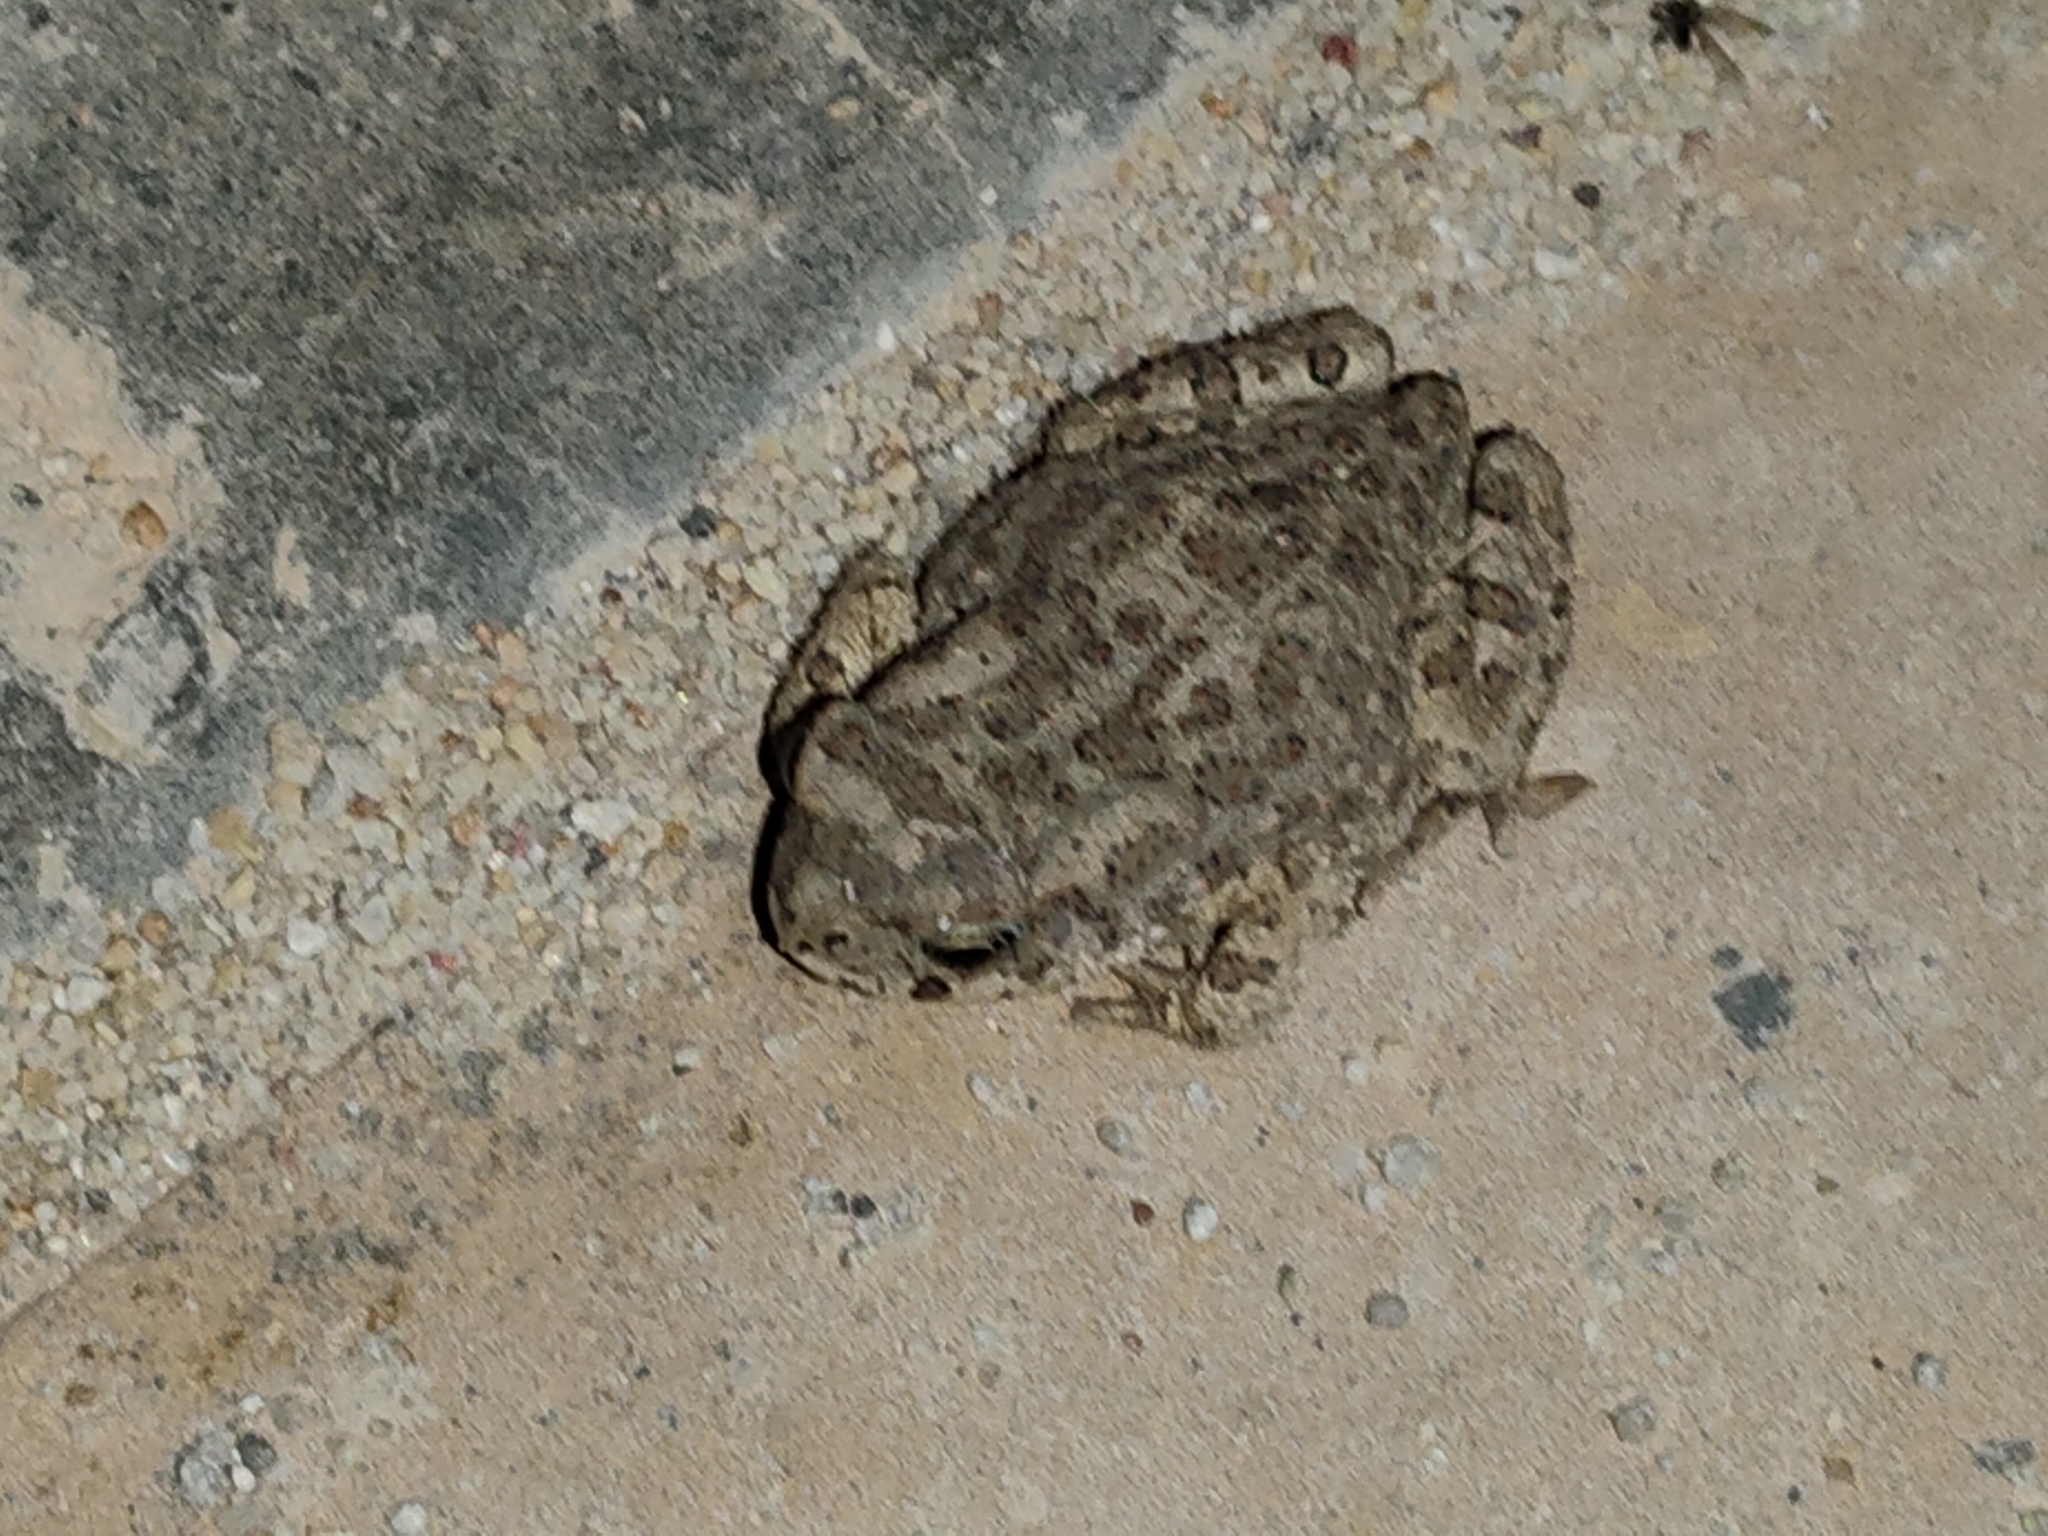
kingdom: Animalia
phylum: Chordata
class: Amphibia
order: Anura
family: Bufonidae
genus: Sclerophrys
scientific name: Sclerophrys mauritanica
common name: Berber toad
